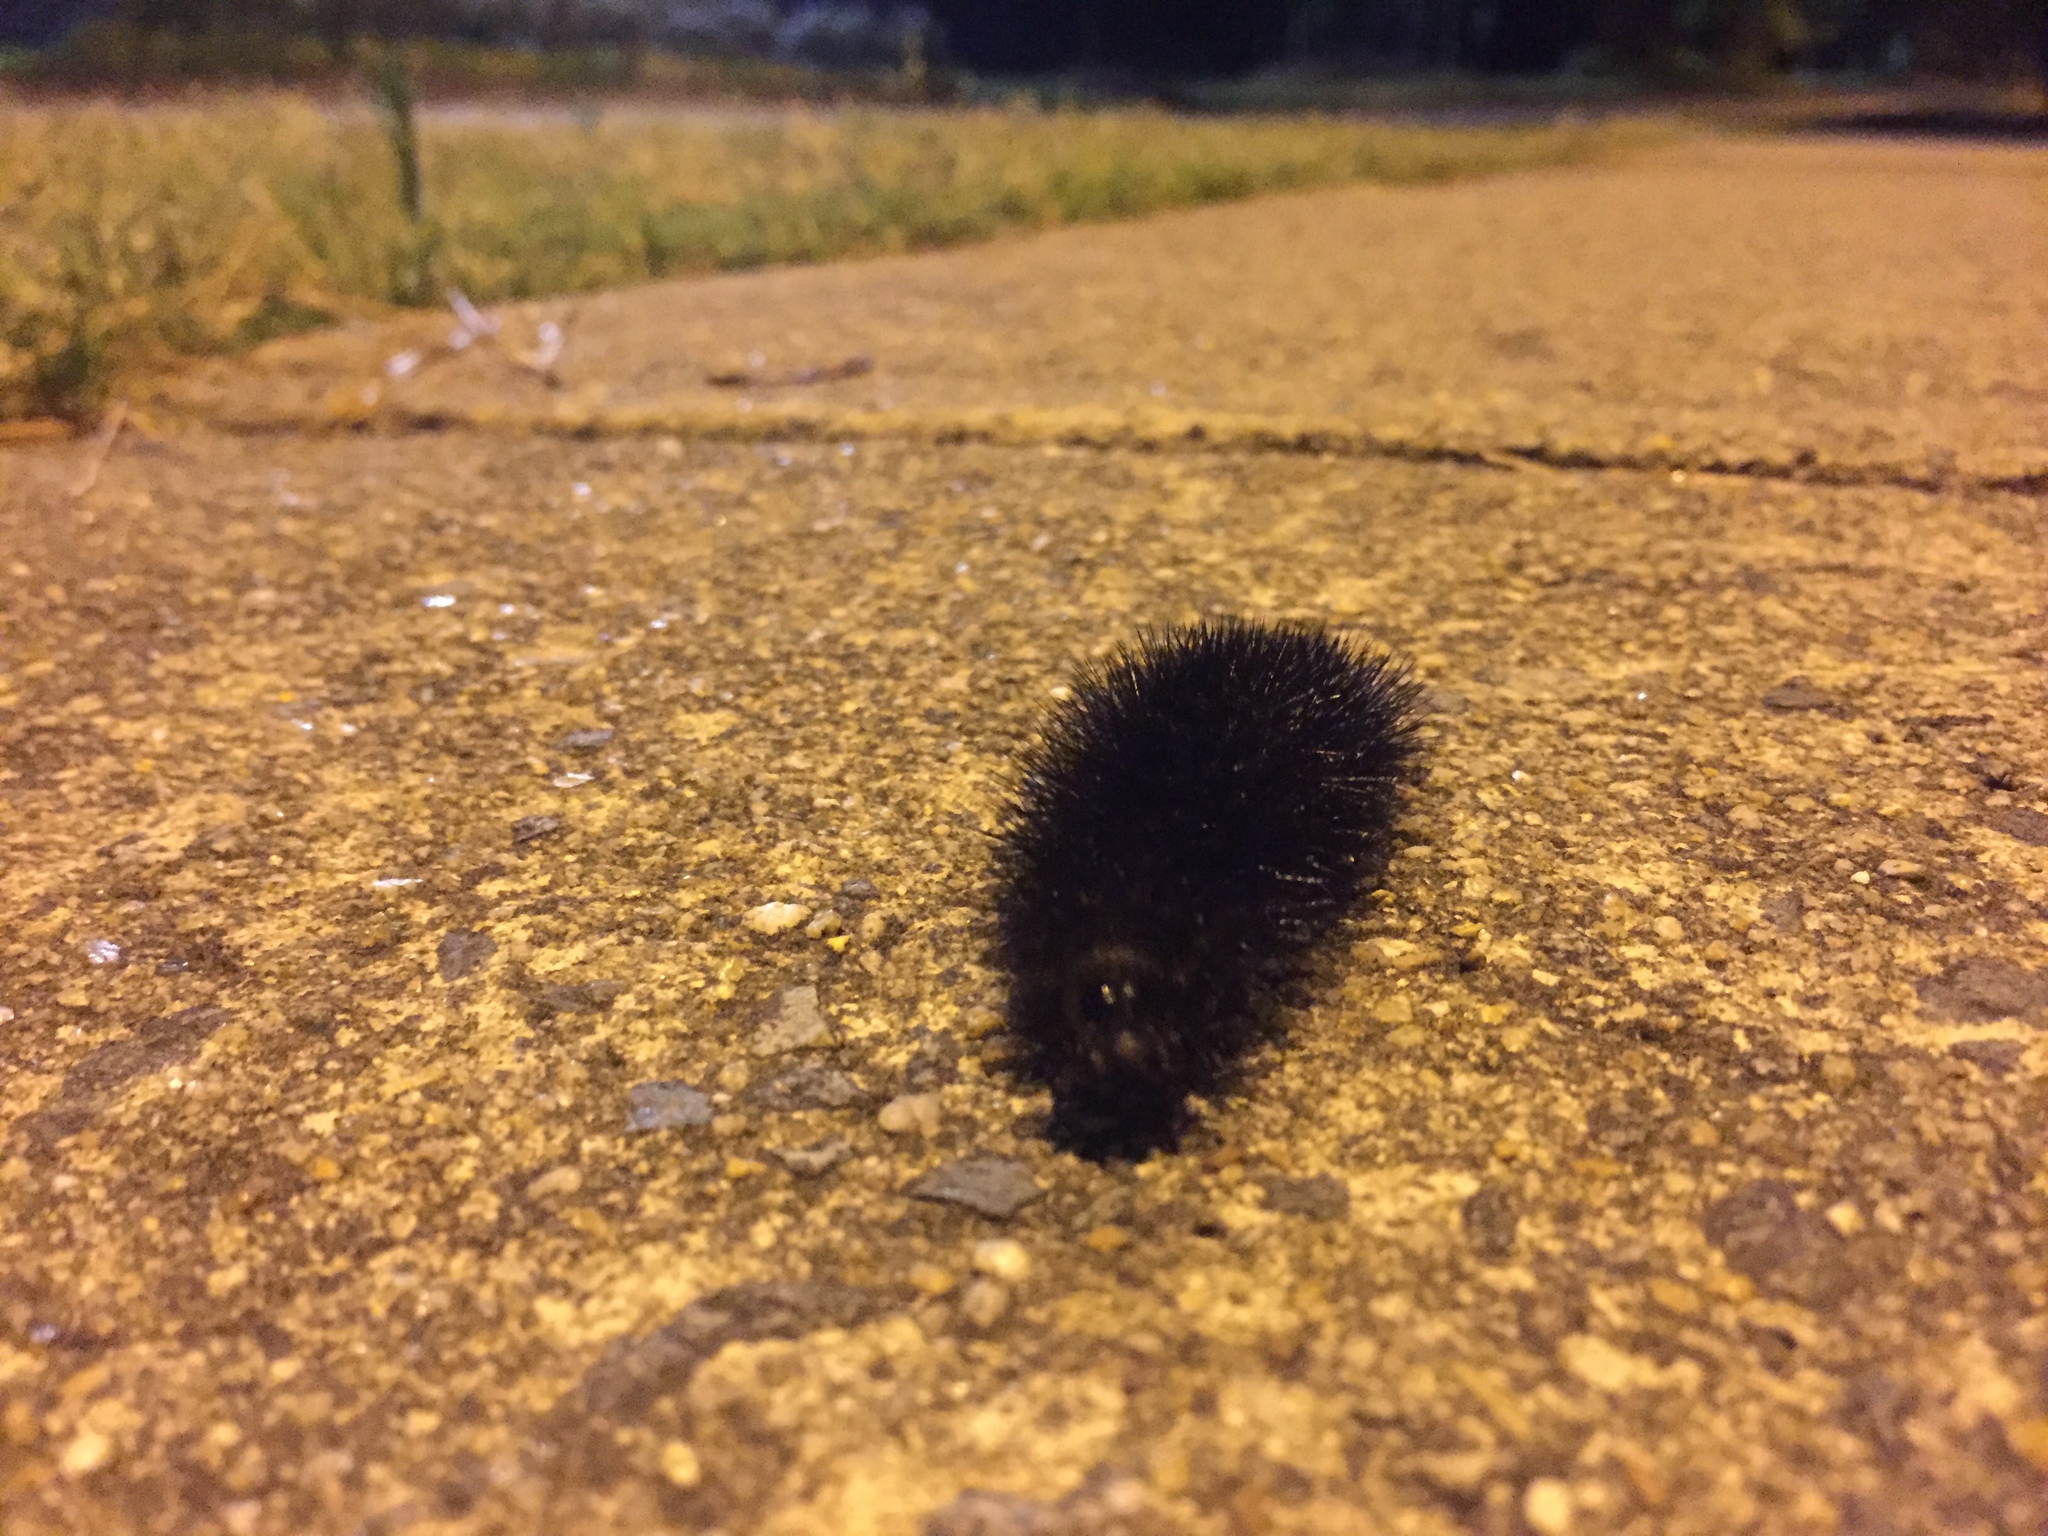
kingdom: Animalia
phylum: Arthropoda
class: Insecta
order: Lepidoptera
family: Erebidae
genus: Hypercompe
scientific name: Hypercompe scribonia
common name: Giant leopard moth
